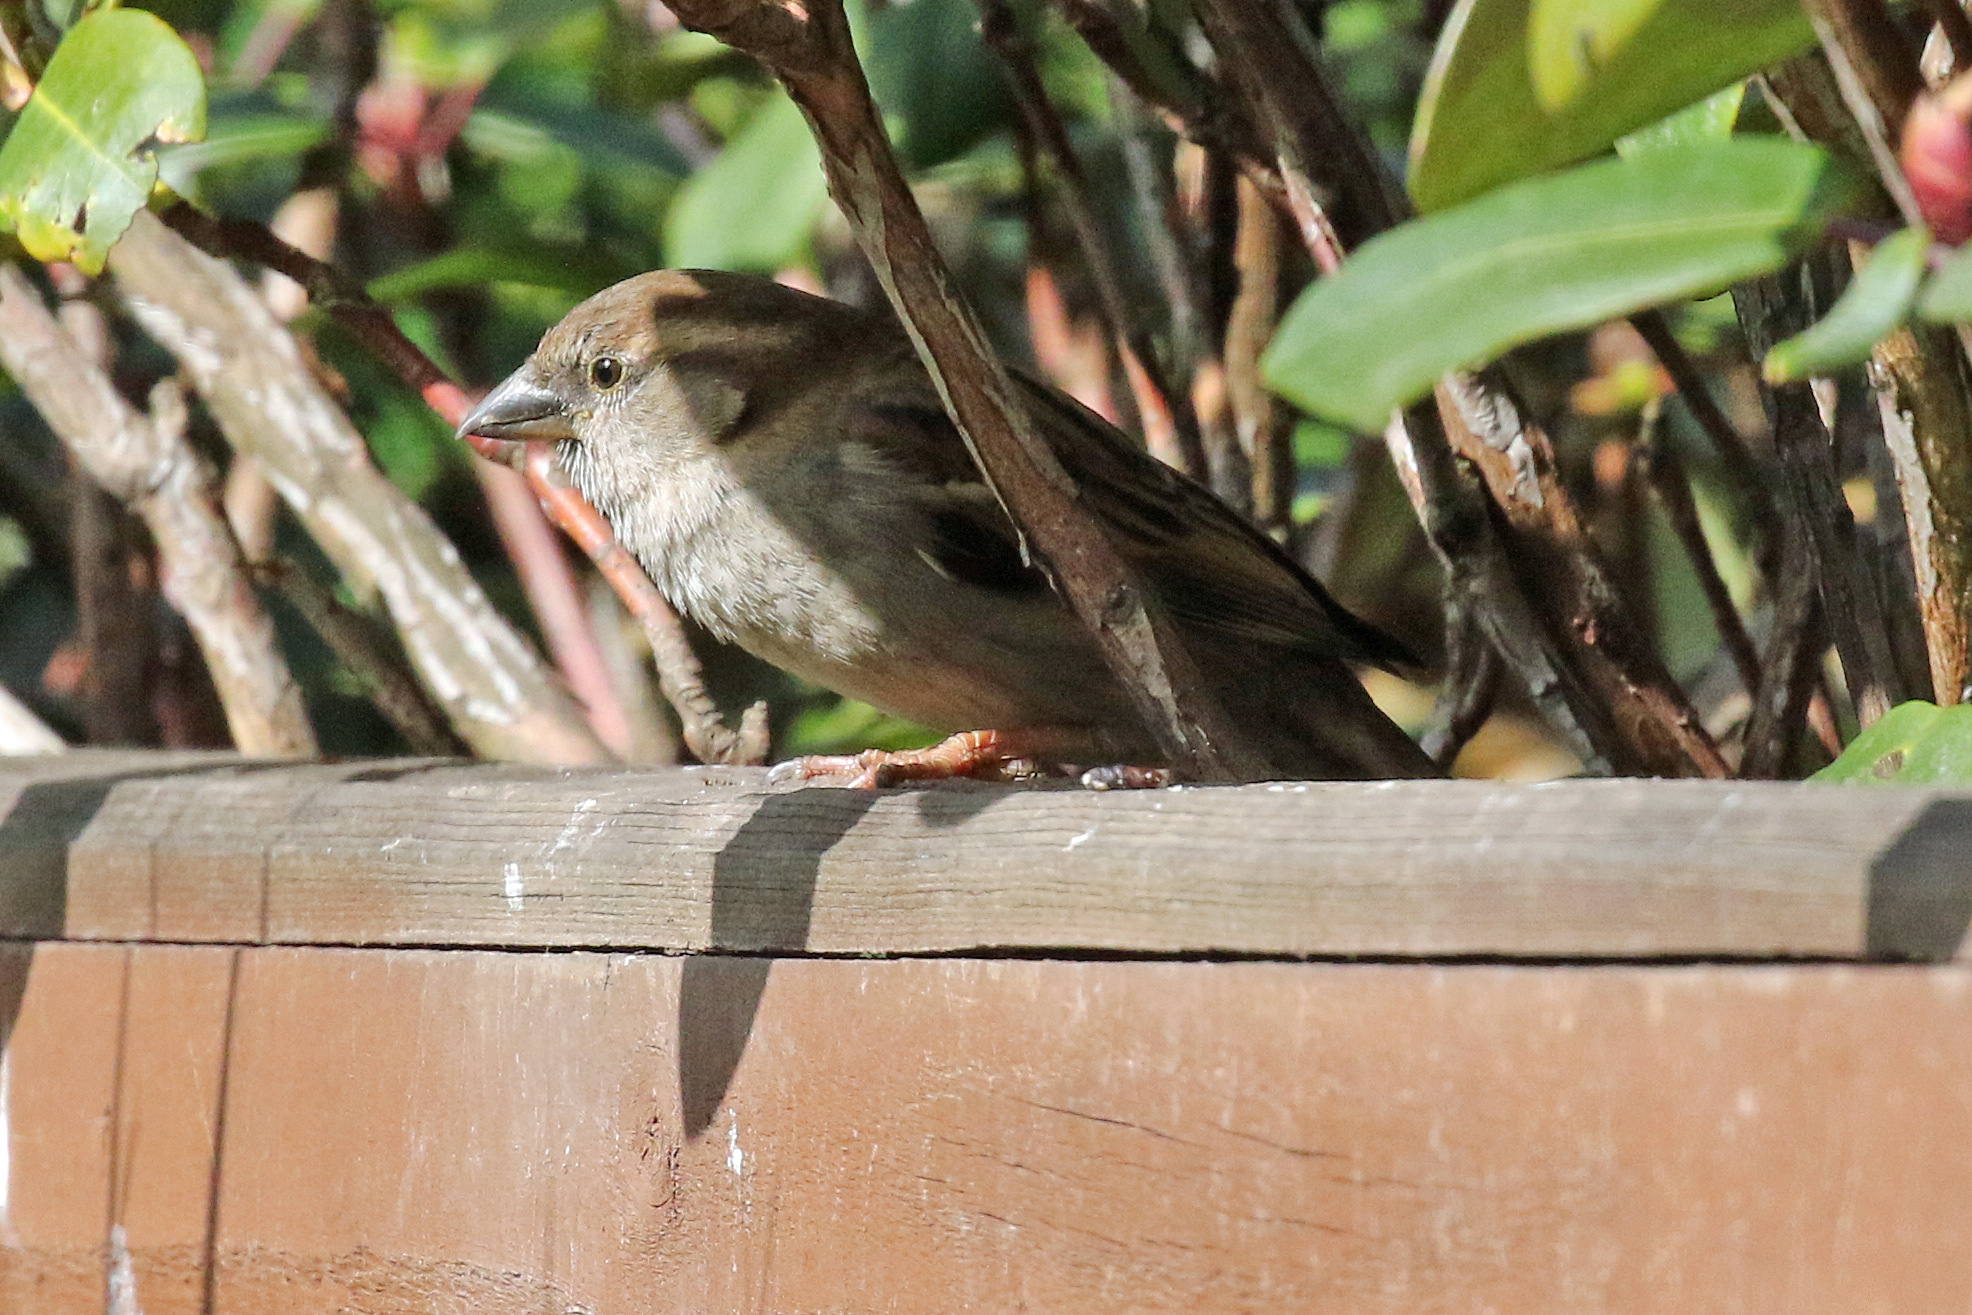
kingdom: Animalia
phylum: Chordata
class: Aves
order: Passeriformes
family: Passeridae
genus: Passer
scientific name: Passer domesticus
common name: House sparrow
